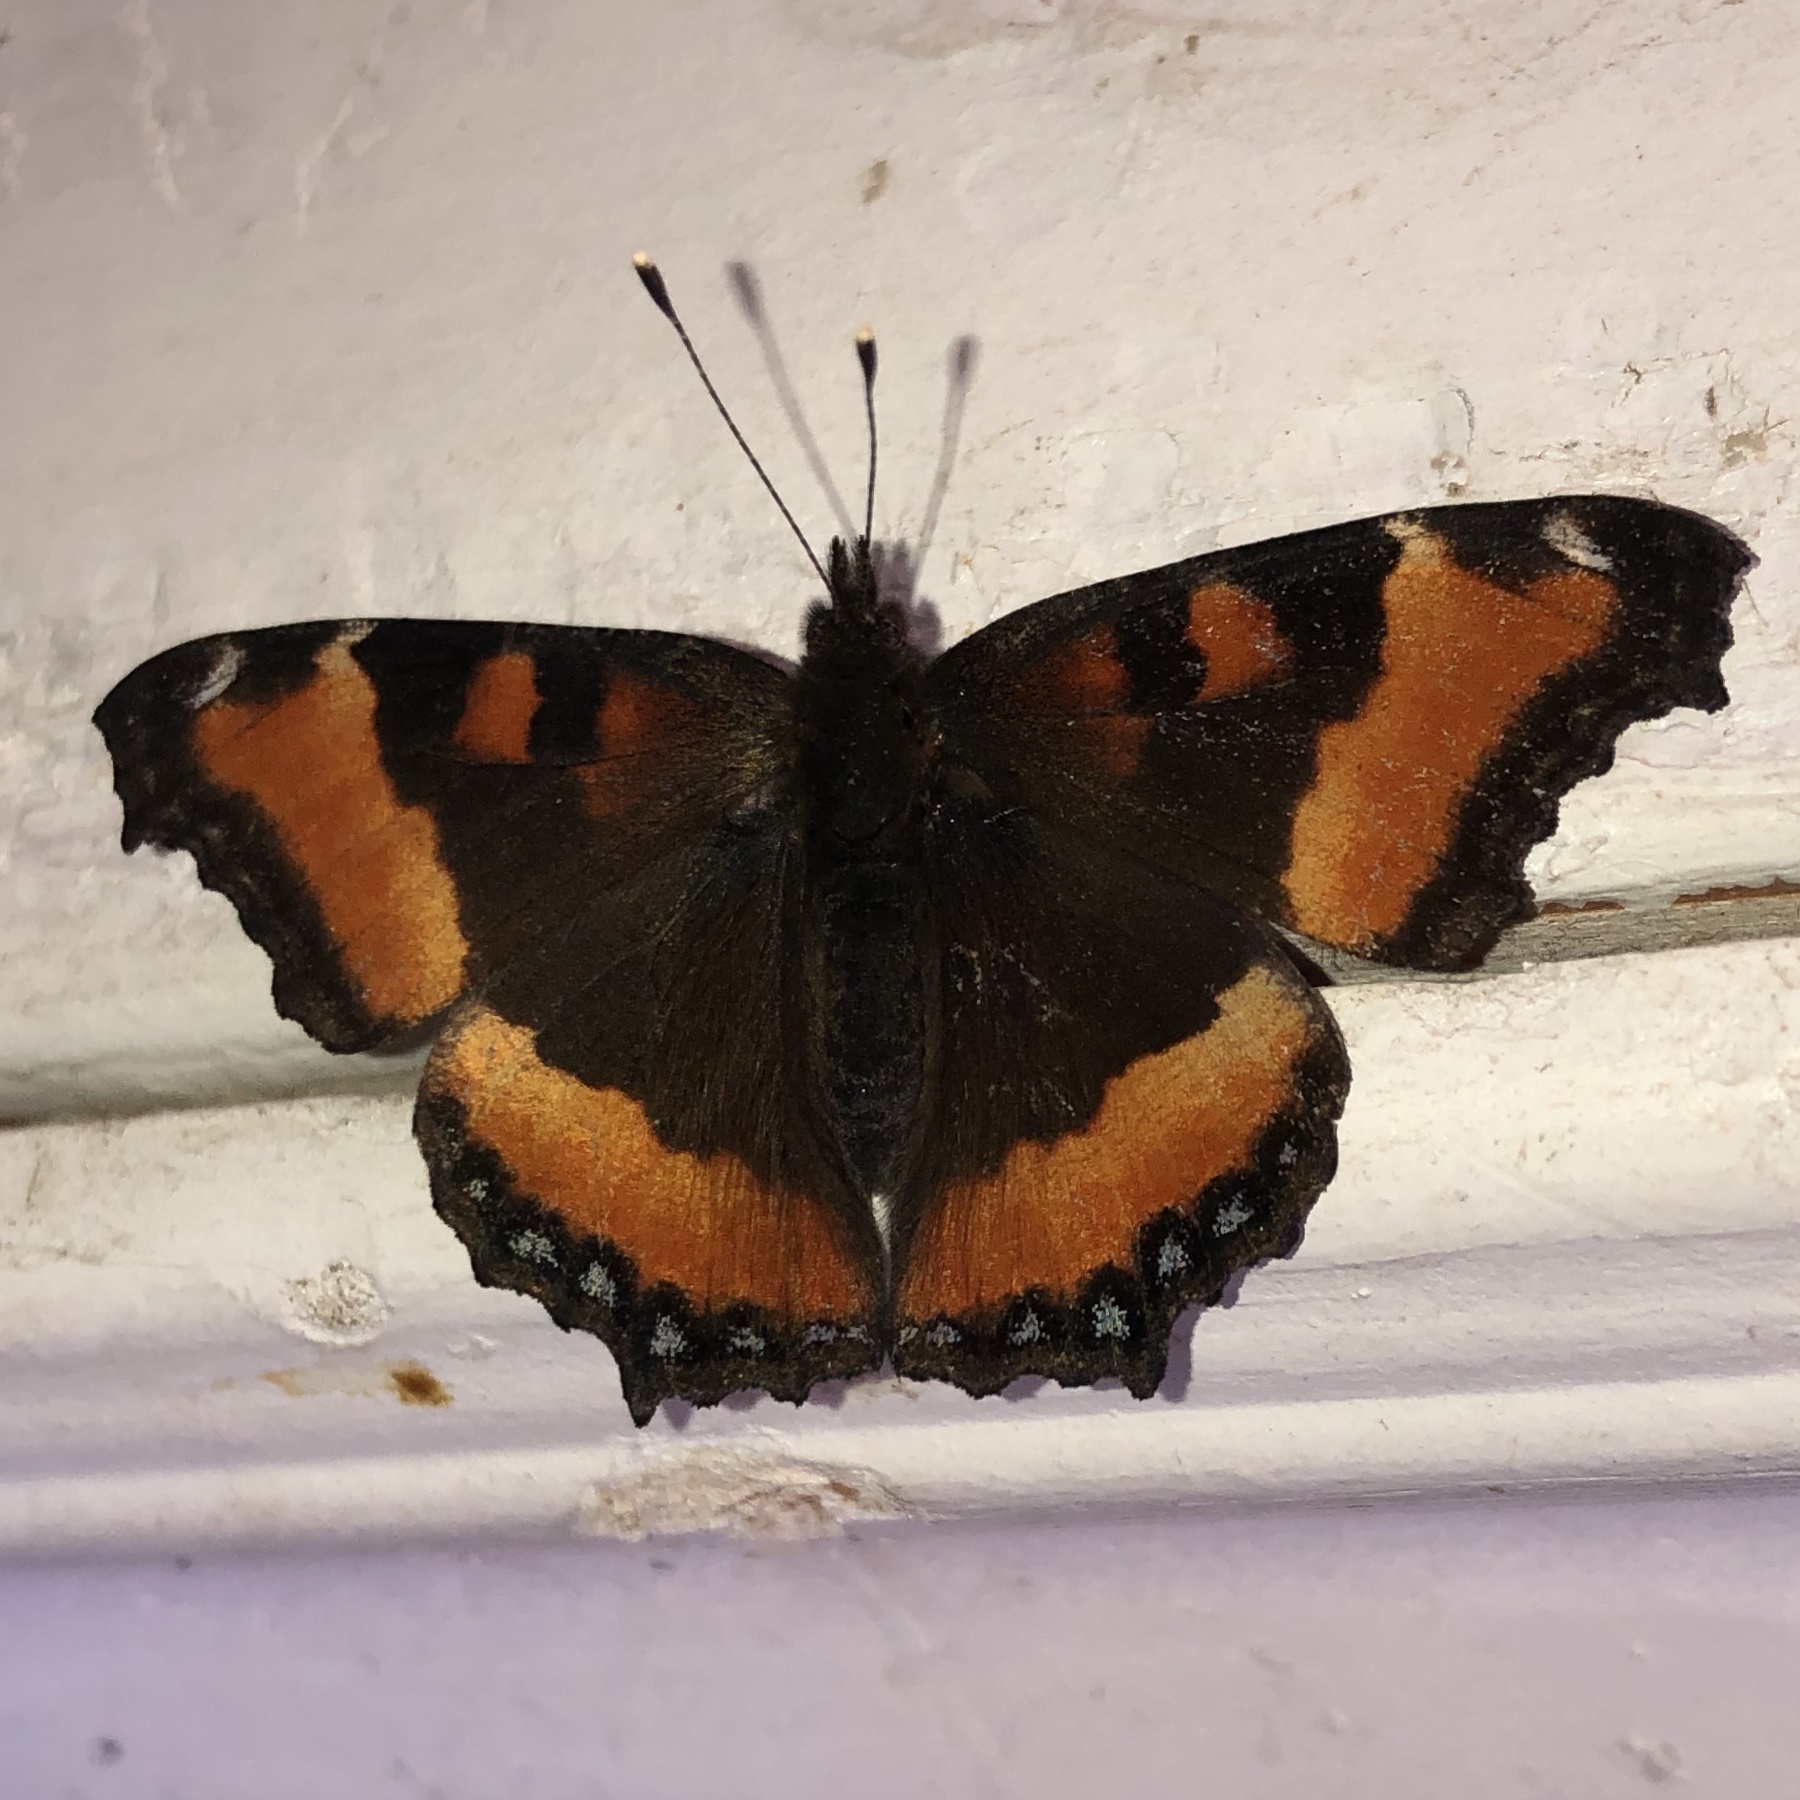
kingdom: Animalia
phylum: Arthropoda
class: Insecta
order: Lepidoptera
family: Nymphalidae
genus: Aglais
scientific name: Aglais milberti
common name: Milbert's tortoiseshell
